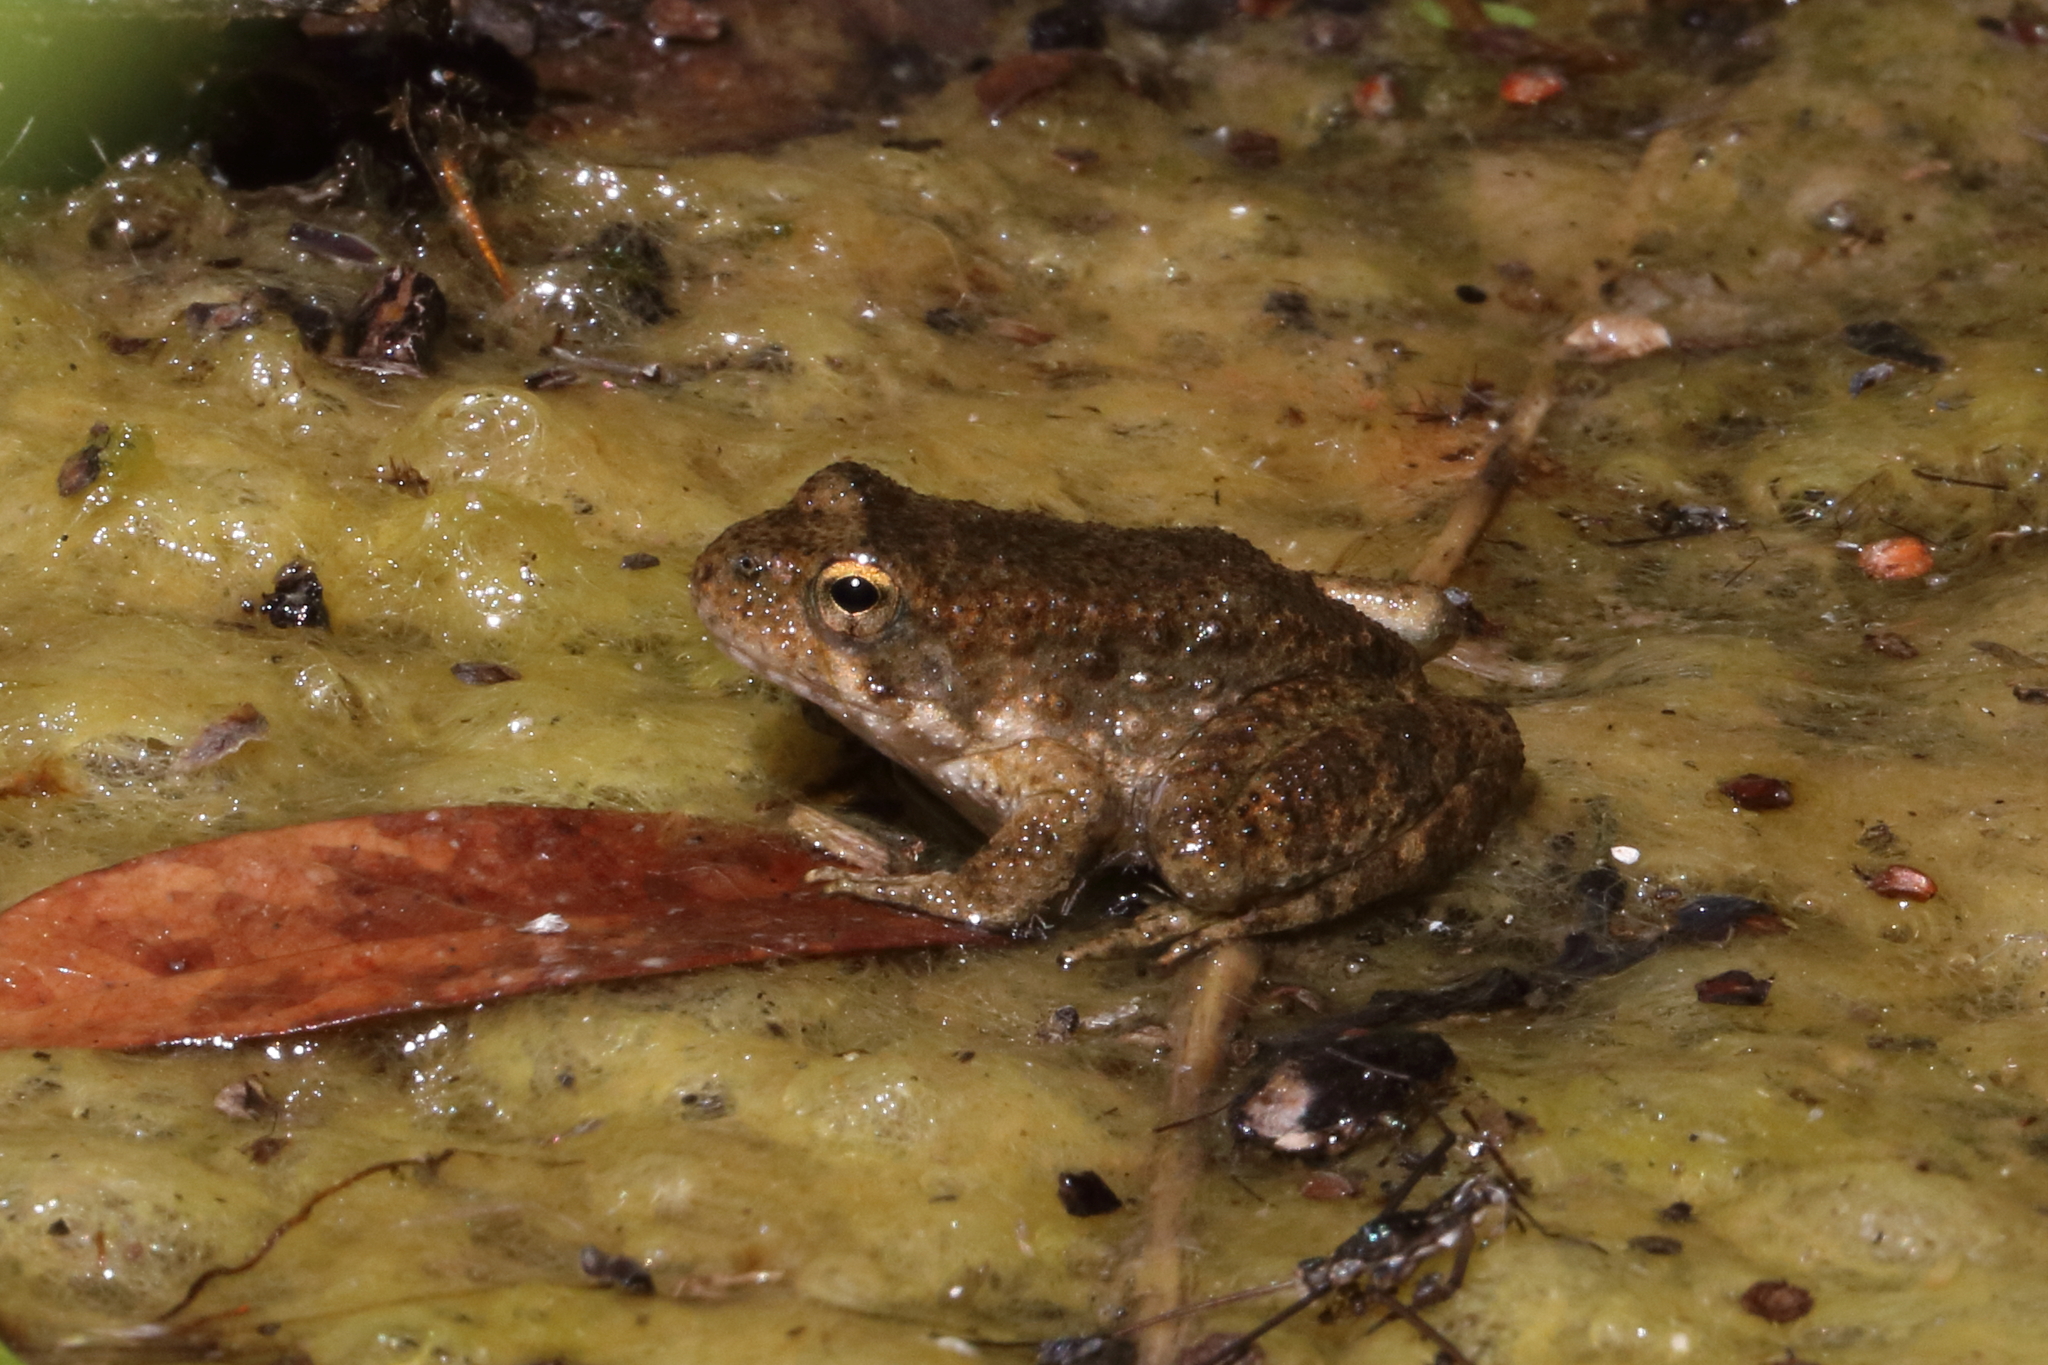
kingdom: Animalia
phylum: Chordata
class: Amphibia
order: Anura
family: Ranidae
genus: Rana
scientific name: Rana boylii
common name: Foothill yellow-legged frog
